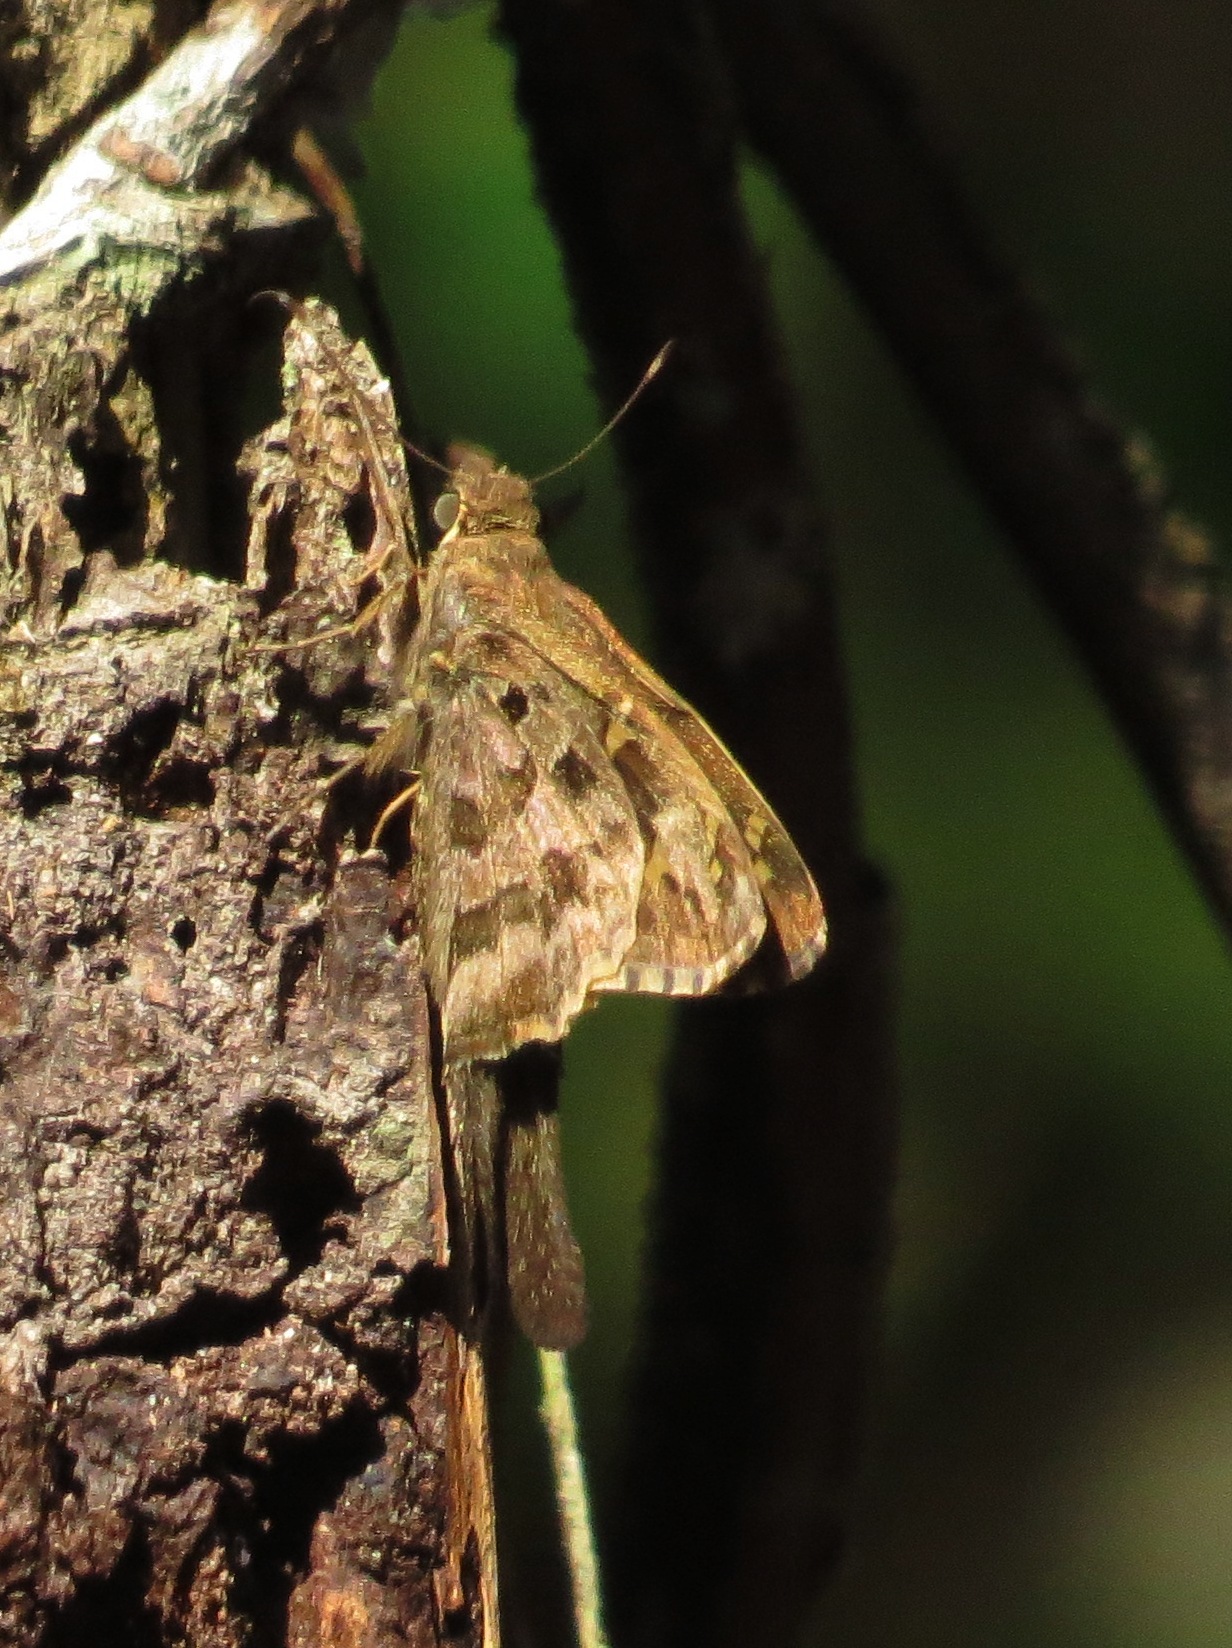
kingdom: Animalia
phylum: Arthropoda
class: Insecta
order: Lepidoptera
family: Hesperiidae
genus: Thorybes
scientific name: Thorybes
